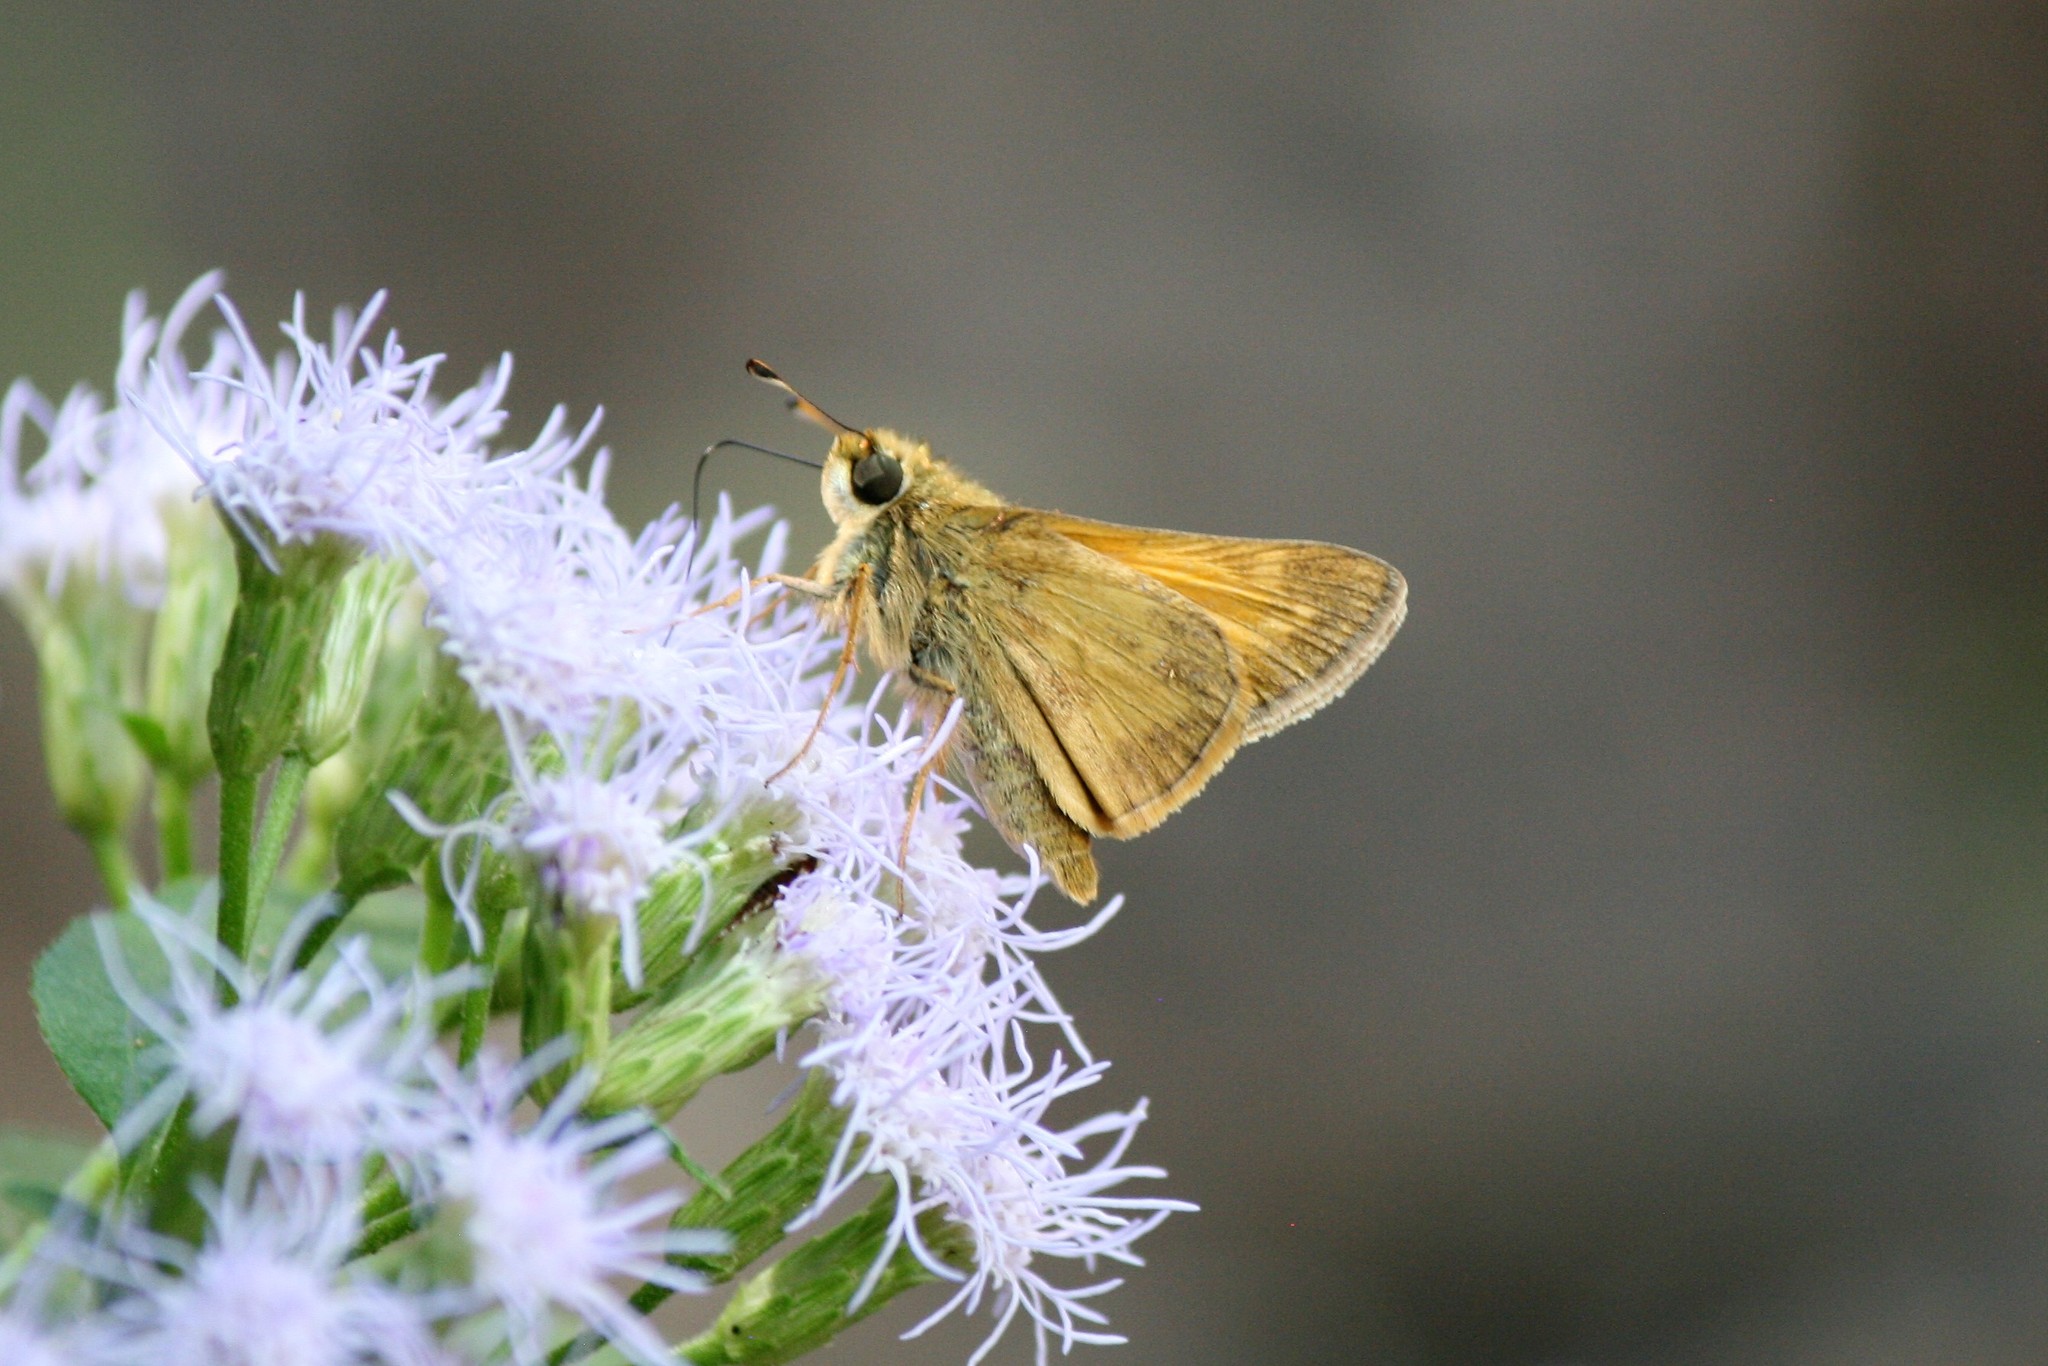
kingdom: Animalia
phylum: Arthropoda
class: Insecta
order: Lepidoptera
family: Hesperiidae
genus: Atalopedes
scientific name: Atalopedes
